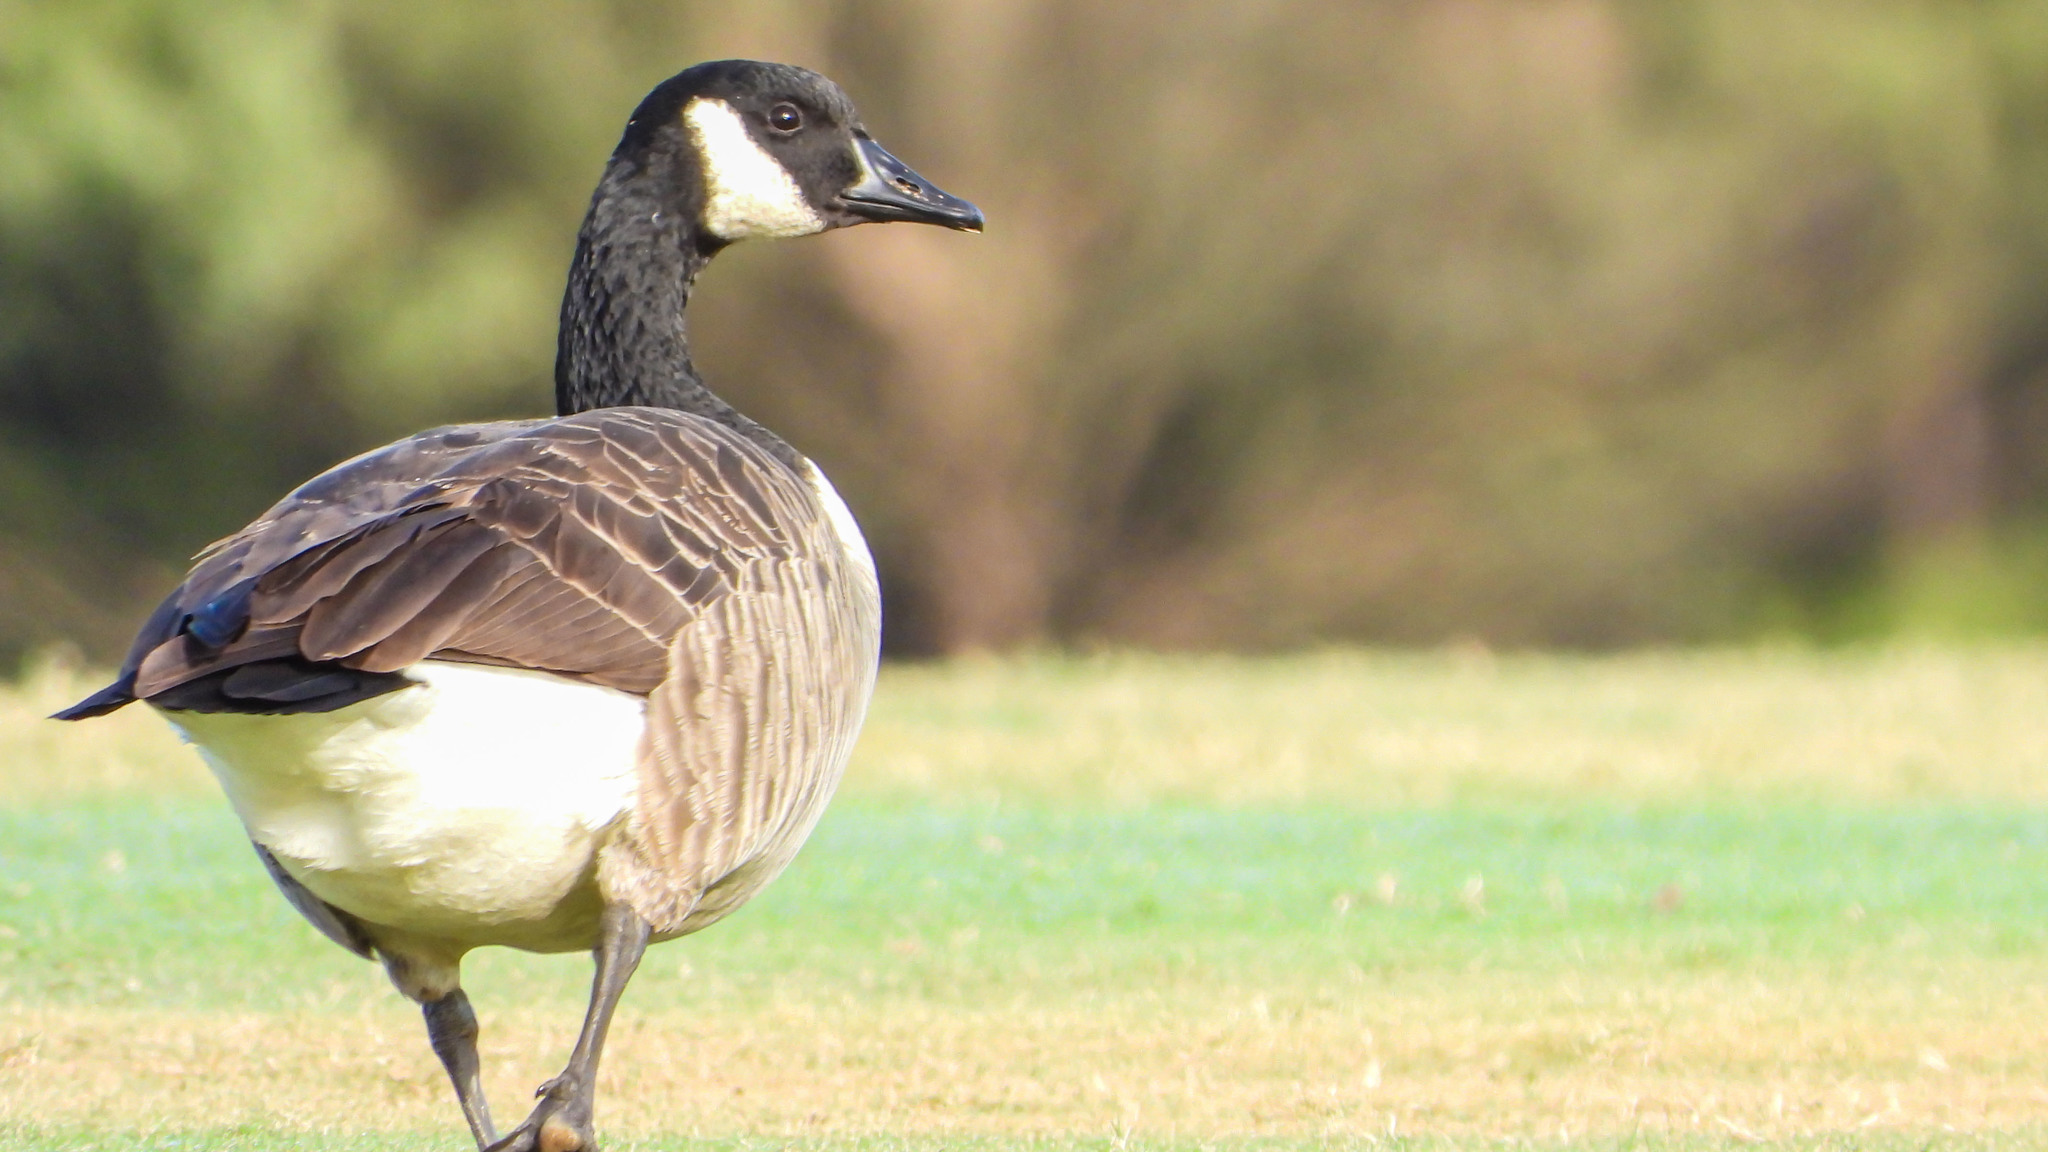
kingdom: Animalia
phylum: Chordata
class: Aves
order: Anseriformes
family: Anatidae
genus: Branta
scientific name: Branta canadensis
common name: Canada goose
